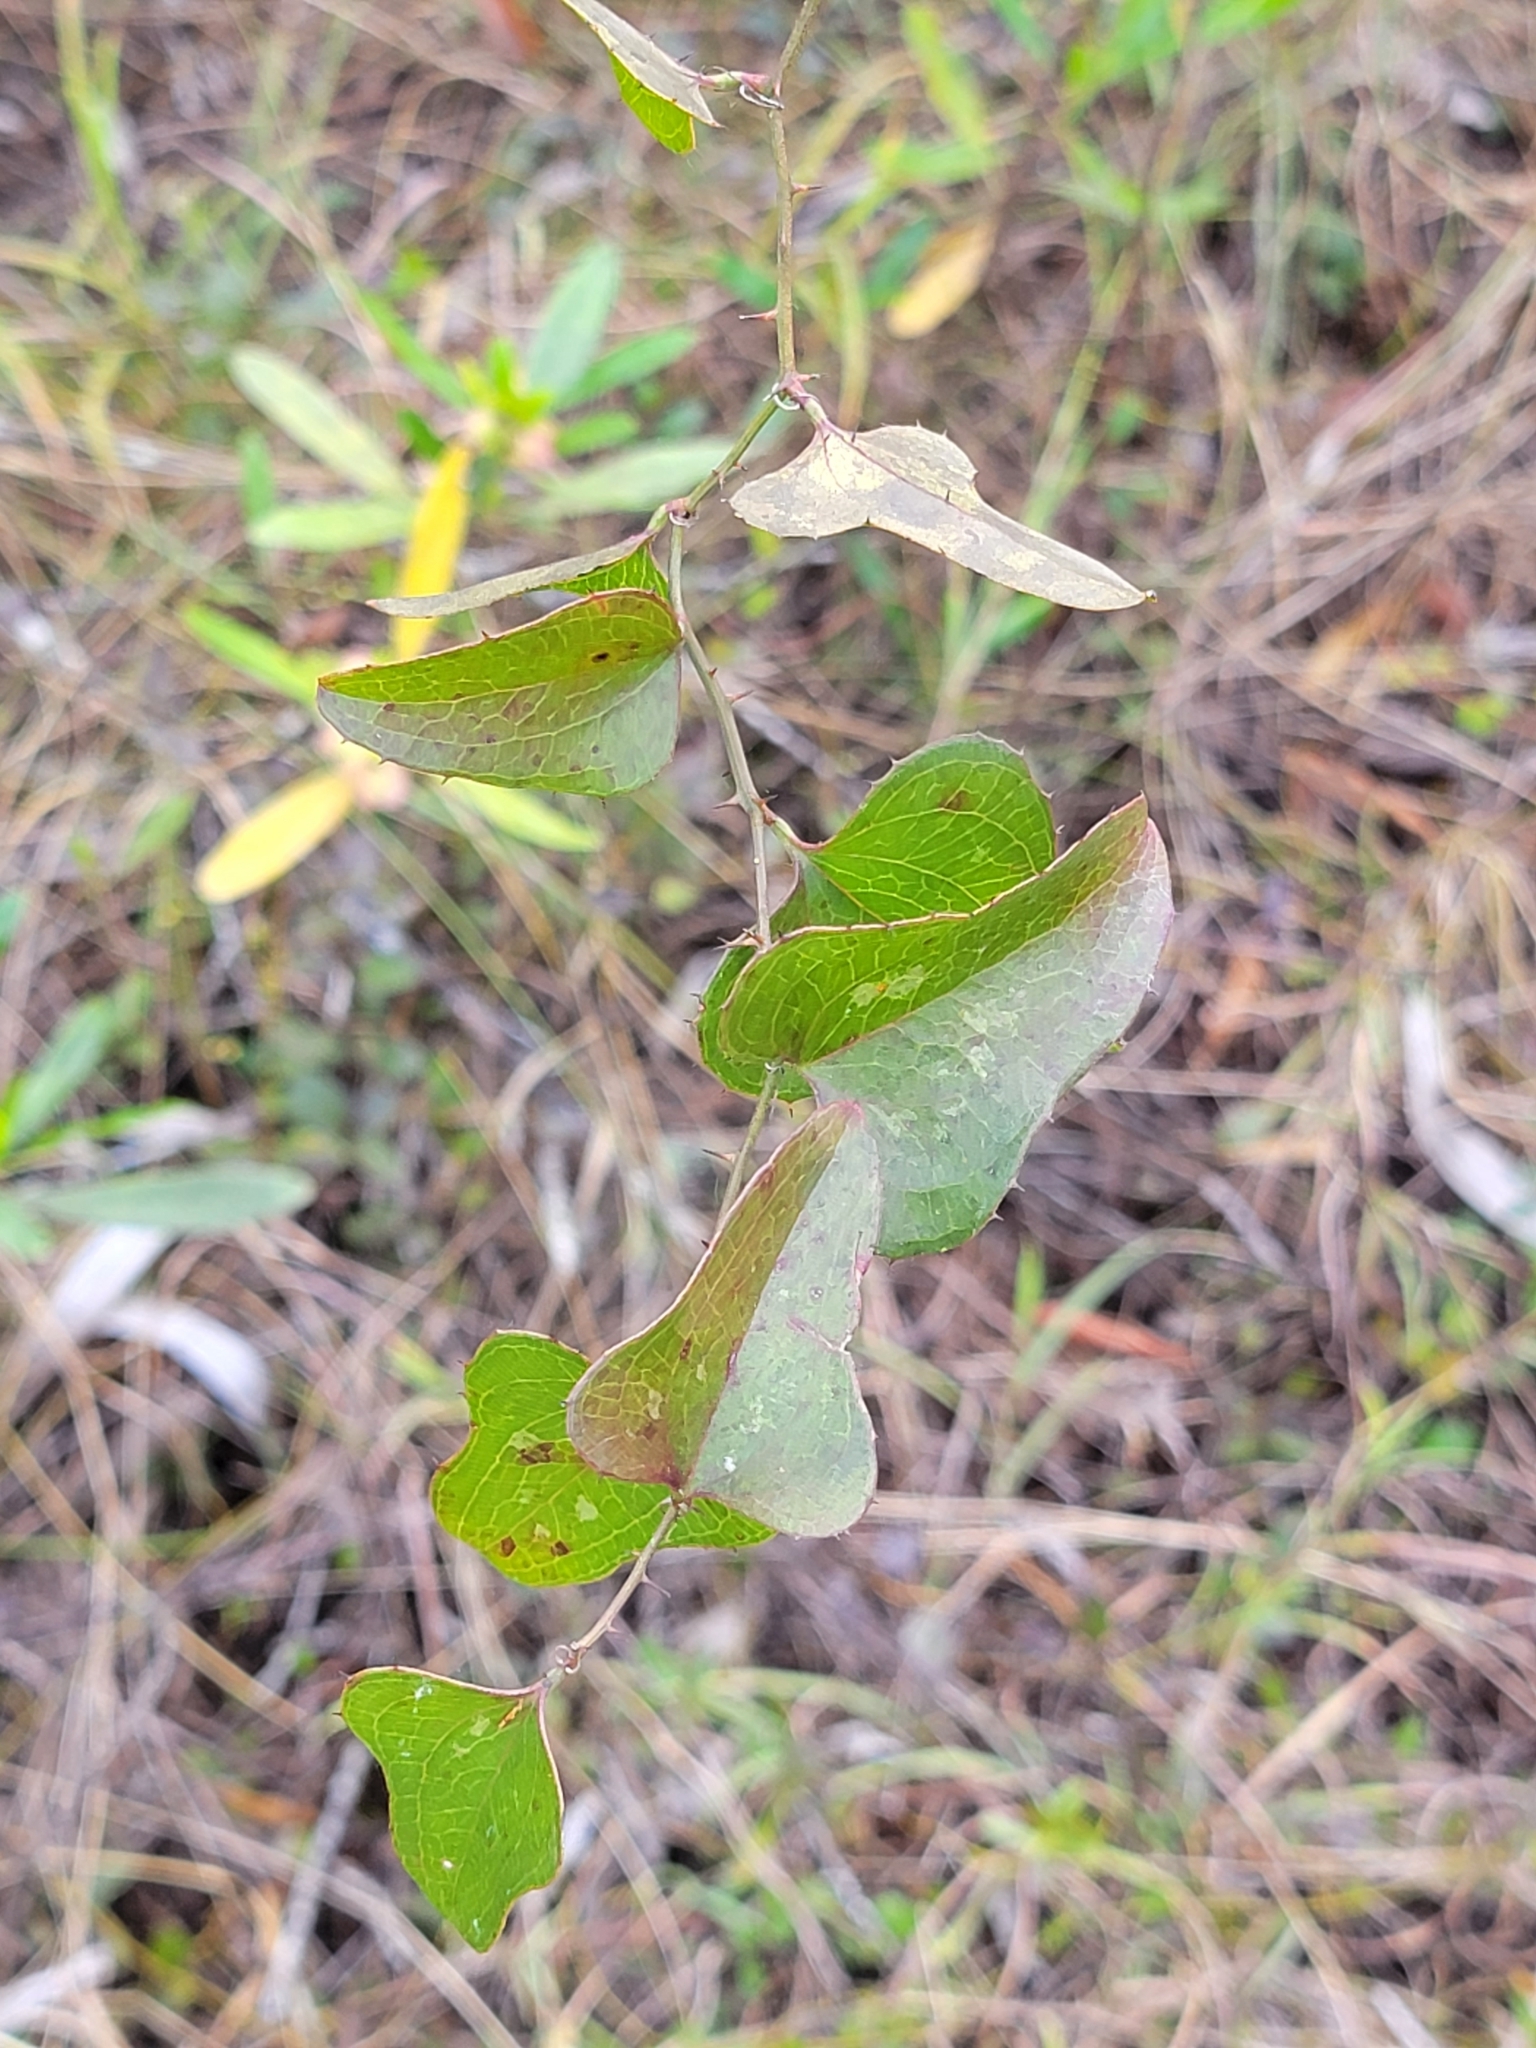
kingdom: Plantae
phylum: Tracheophyta
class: Liliopsida
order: Liliales
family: Smilacaceae
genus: Smilax
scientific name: Smilax bona-nox
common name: Catbrier
